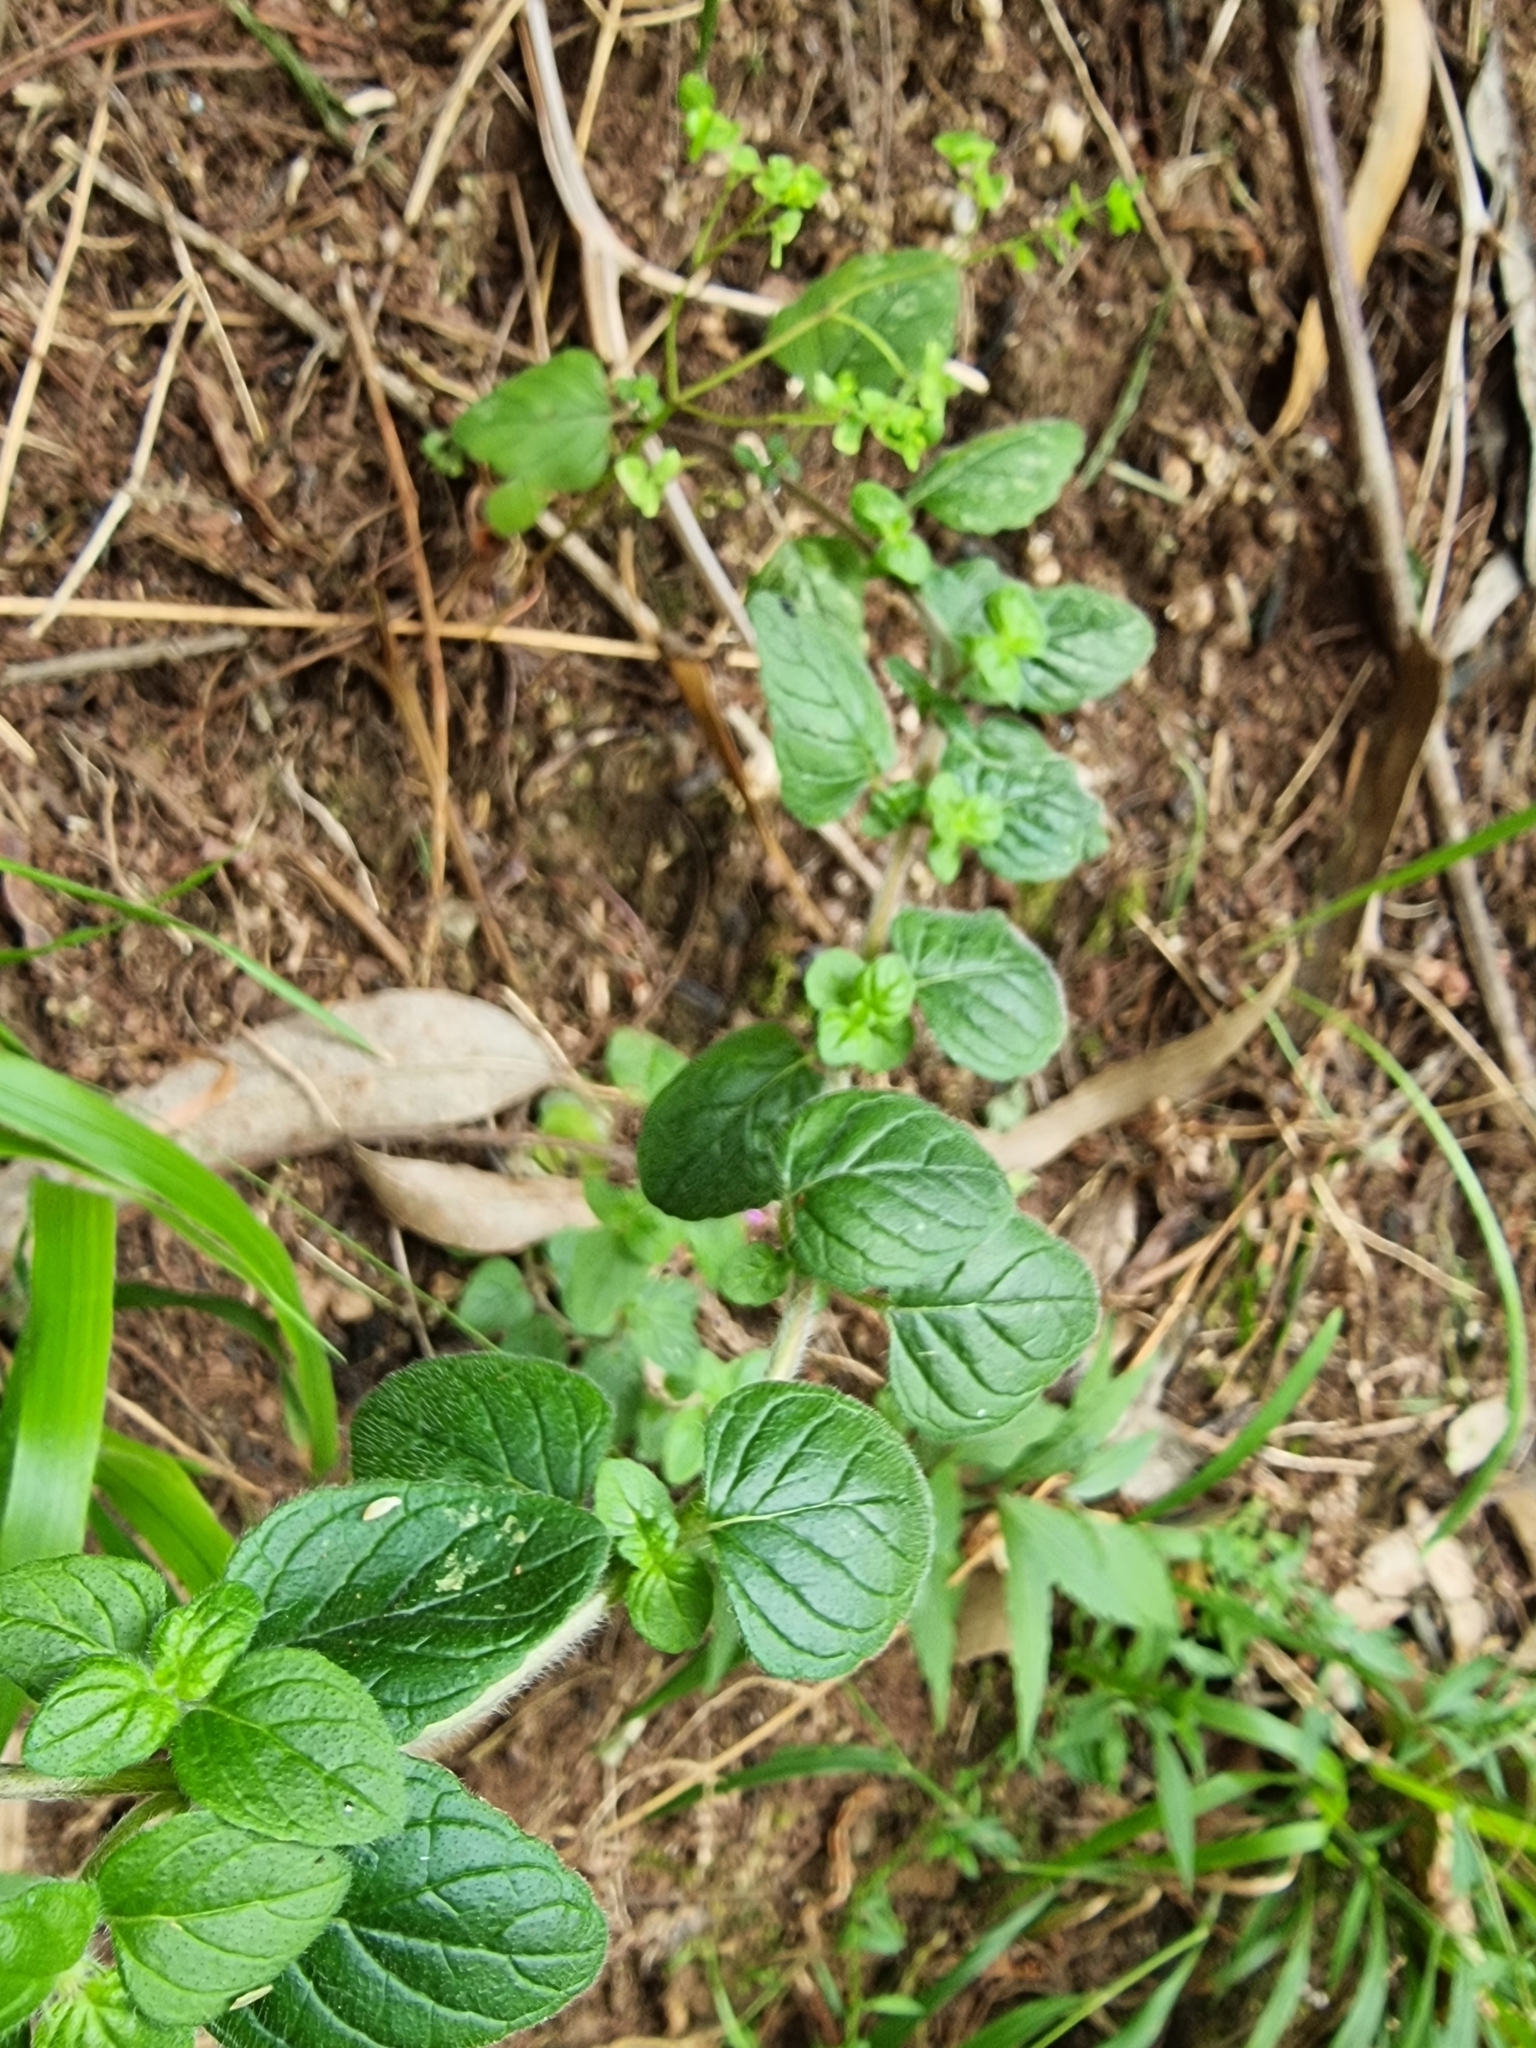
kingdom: Plantae
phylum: Tracheophyta
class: Magnoliopsida
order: Lamiales
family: Lamiaceae
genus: Clinopodium
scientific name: Clinopodium vulgare
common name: Wild basil
